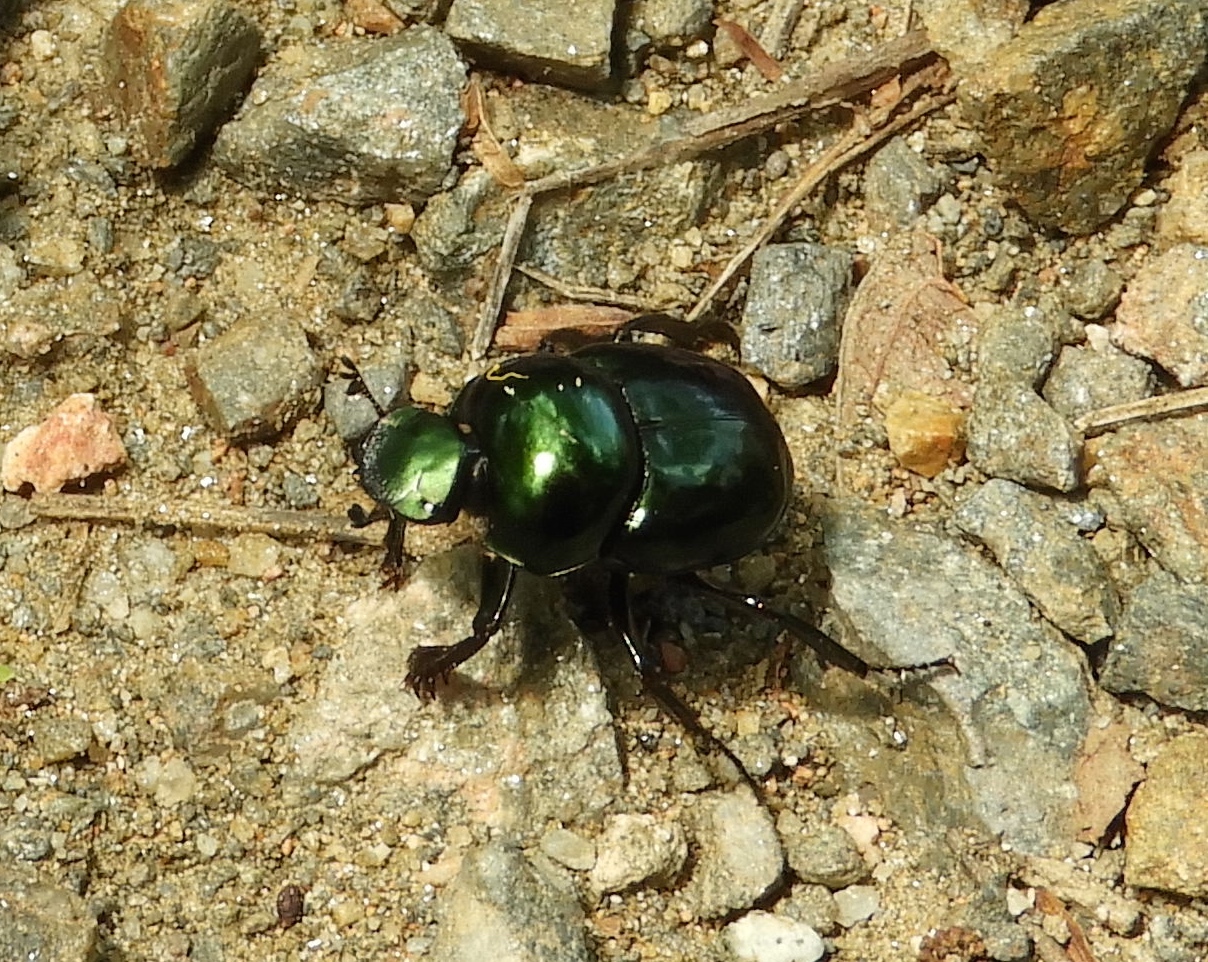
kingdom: Animalia
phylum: Arthropoda
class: Insecta
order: Coleoptera
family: Scarabaeidae
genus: Canthon
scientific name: Canthon
